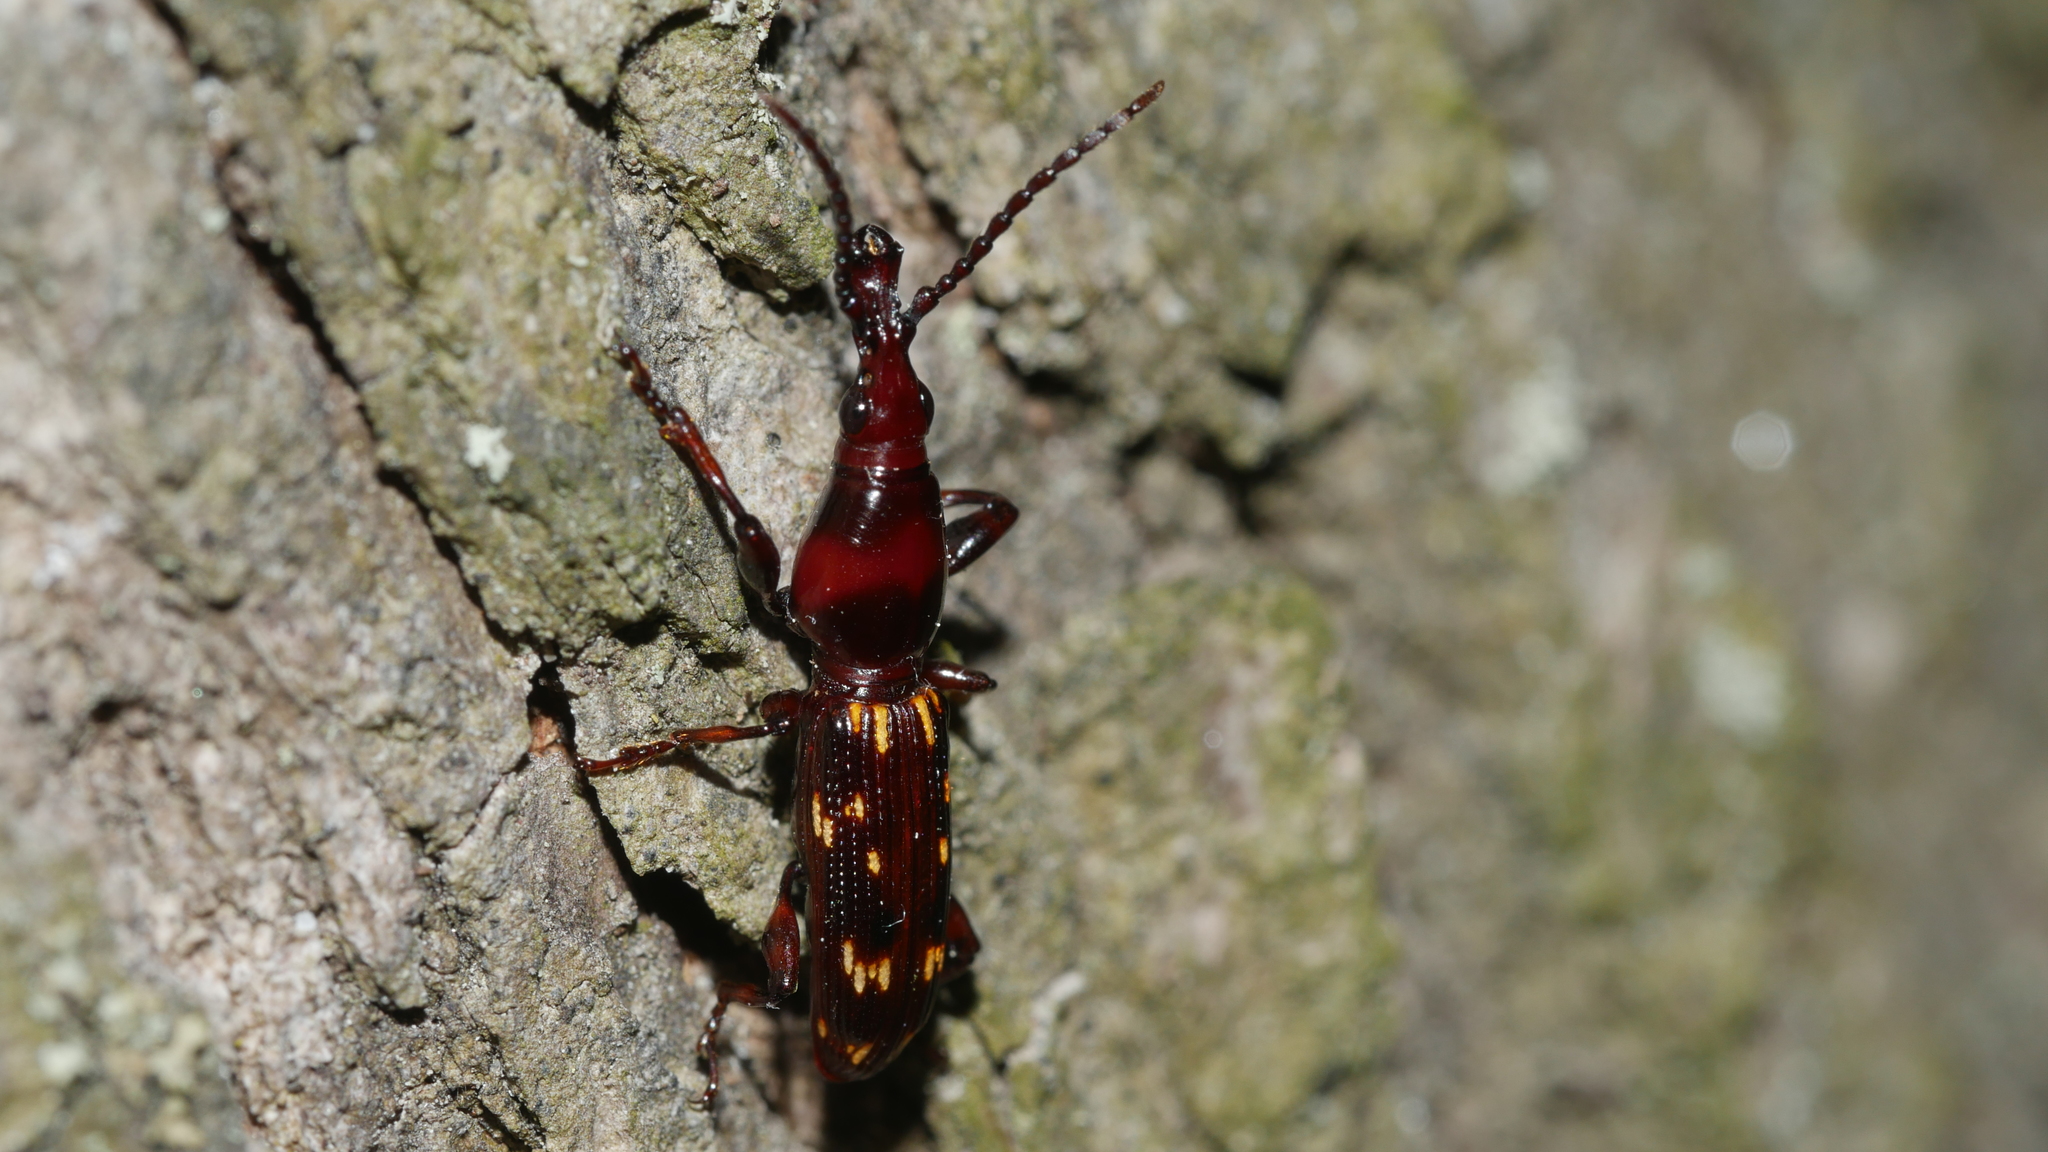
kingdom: Animalia
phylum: Arthropoda
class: Insecta
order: Coleoptera
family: Brentidae
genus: Arrenodes
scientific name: Arrenodes minutus
